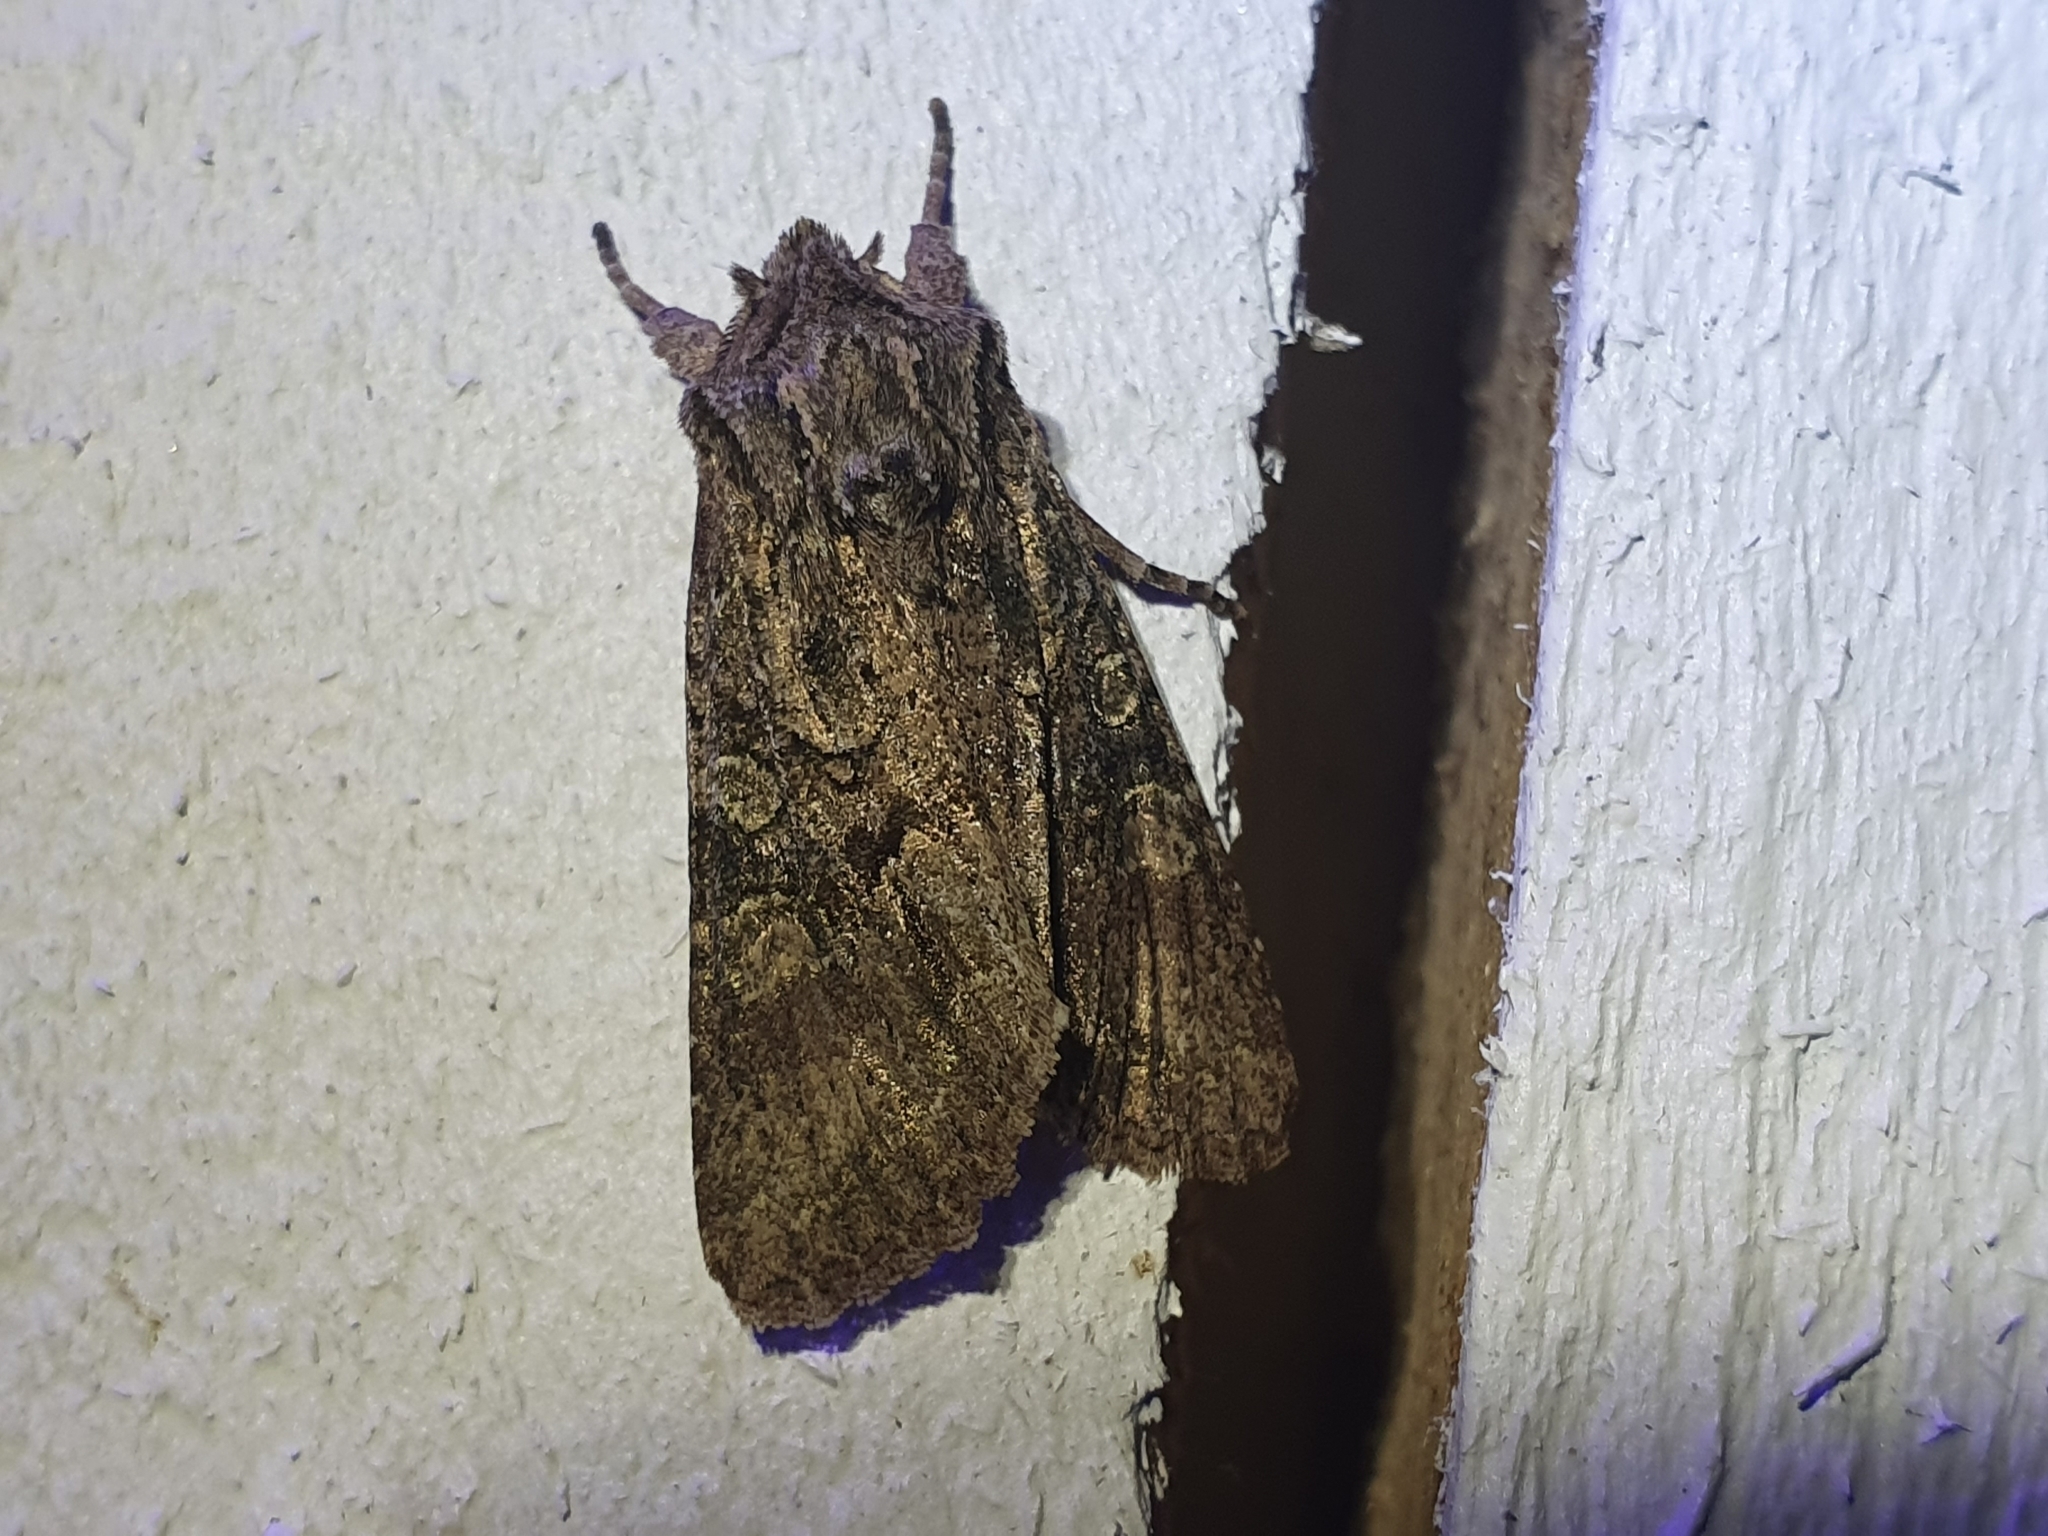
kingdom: Animalia
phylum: Arthropoda
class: Insecta
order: Lepidoptera
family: Noctuidae
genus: Ichneutica
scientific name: Ichneutica mutans
